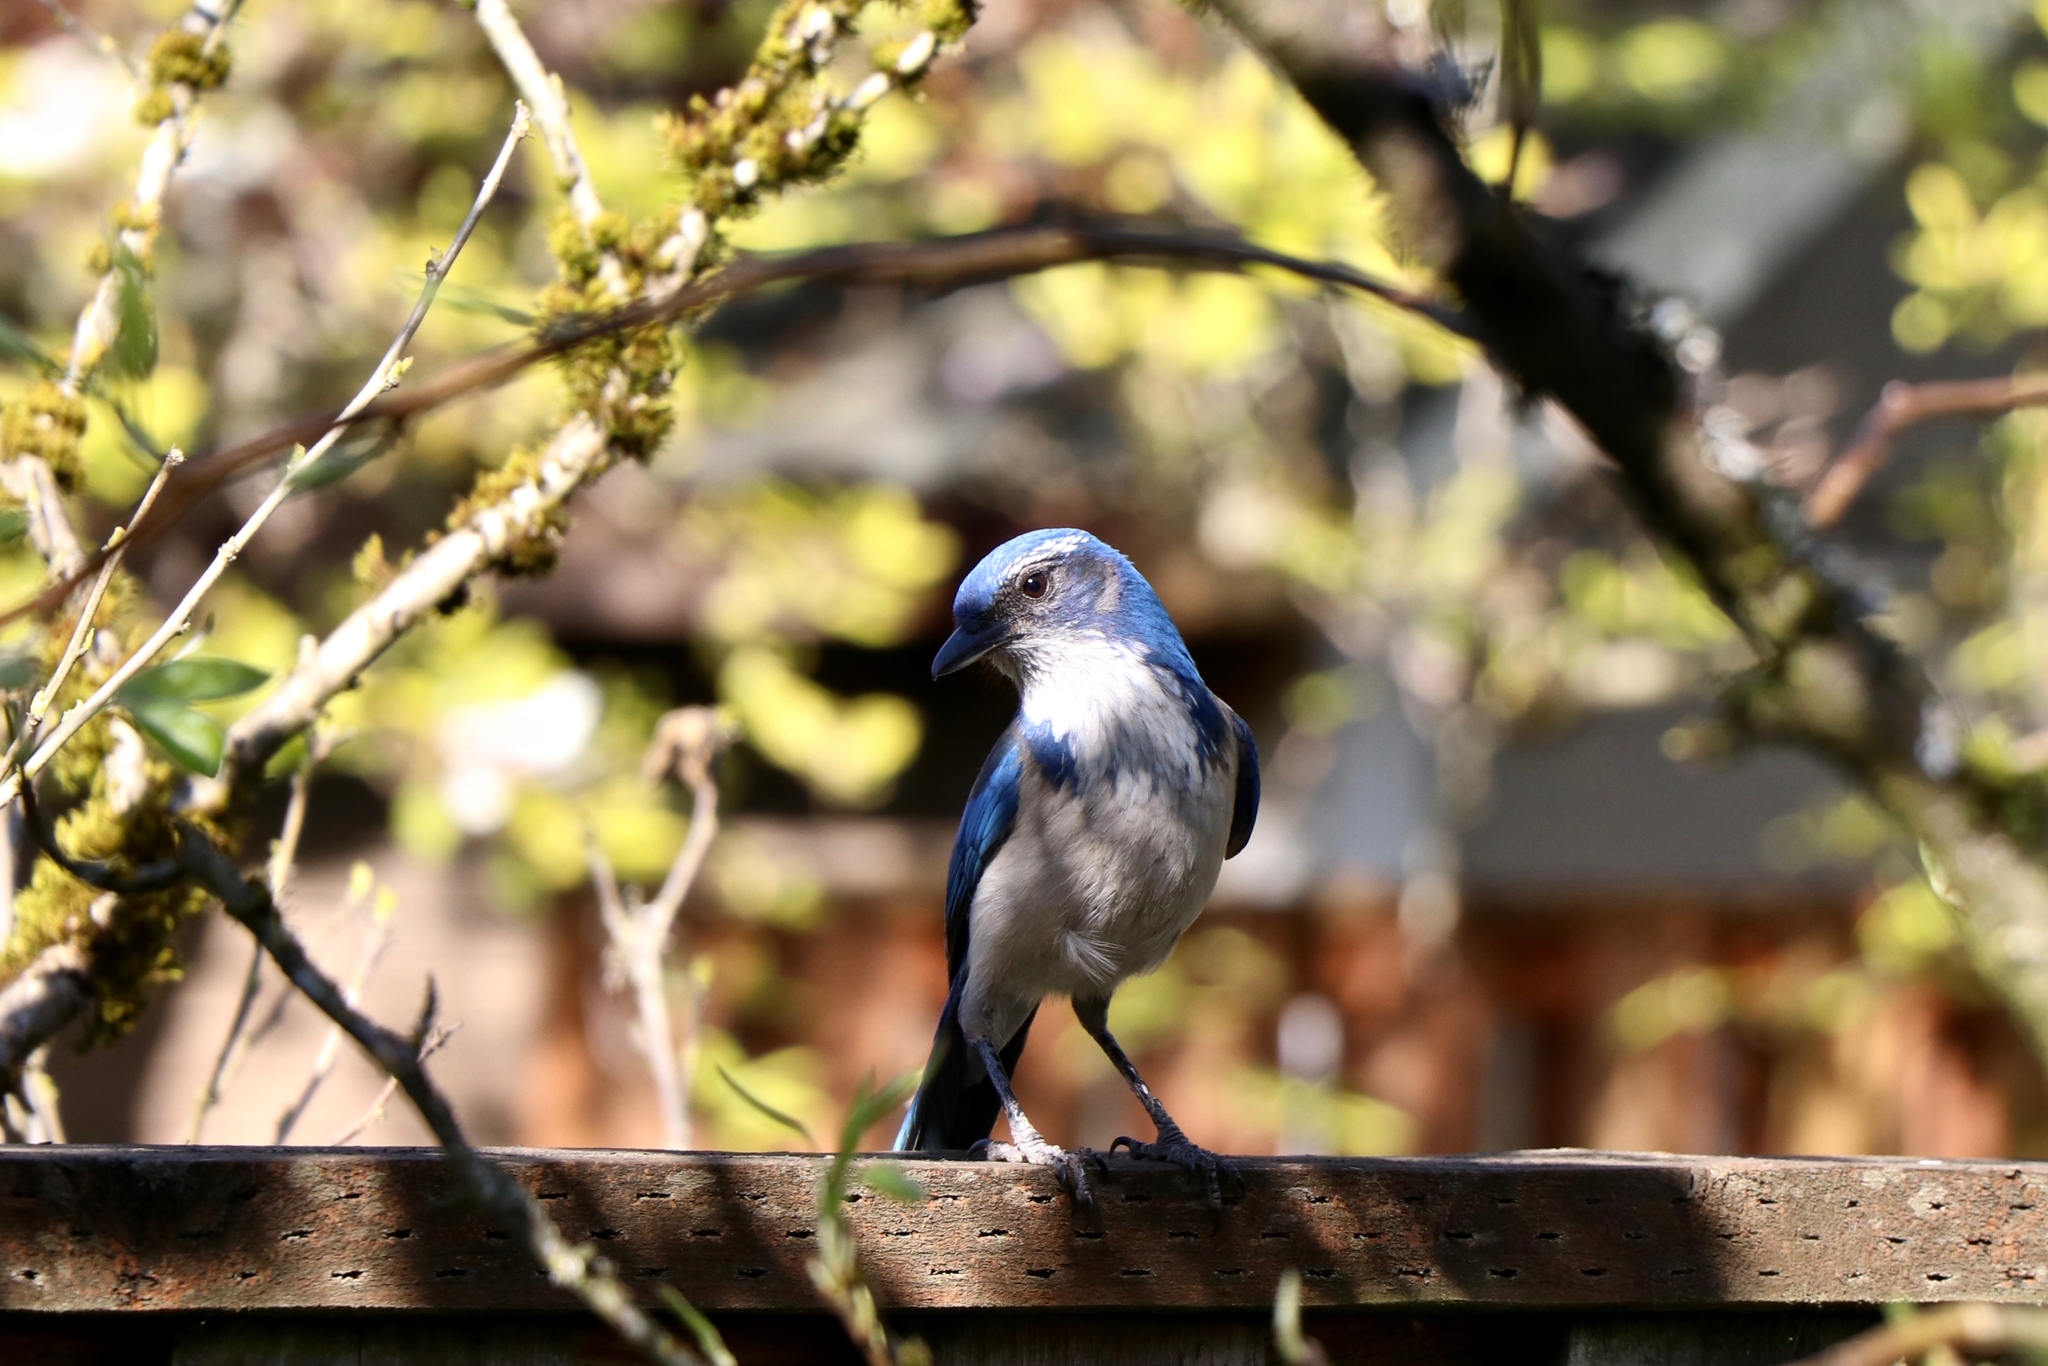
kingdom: Animalia
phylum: Chordata
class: Aves
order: Passeriformes
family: Corvidae
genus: Aphelocoma
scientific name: Aphelocoma californica
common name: California scrub-jay
